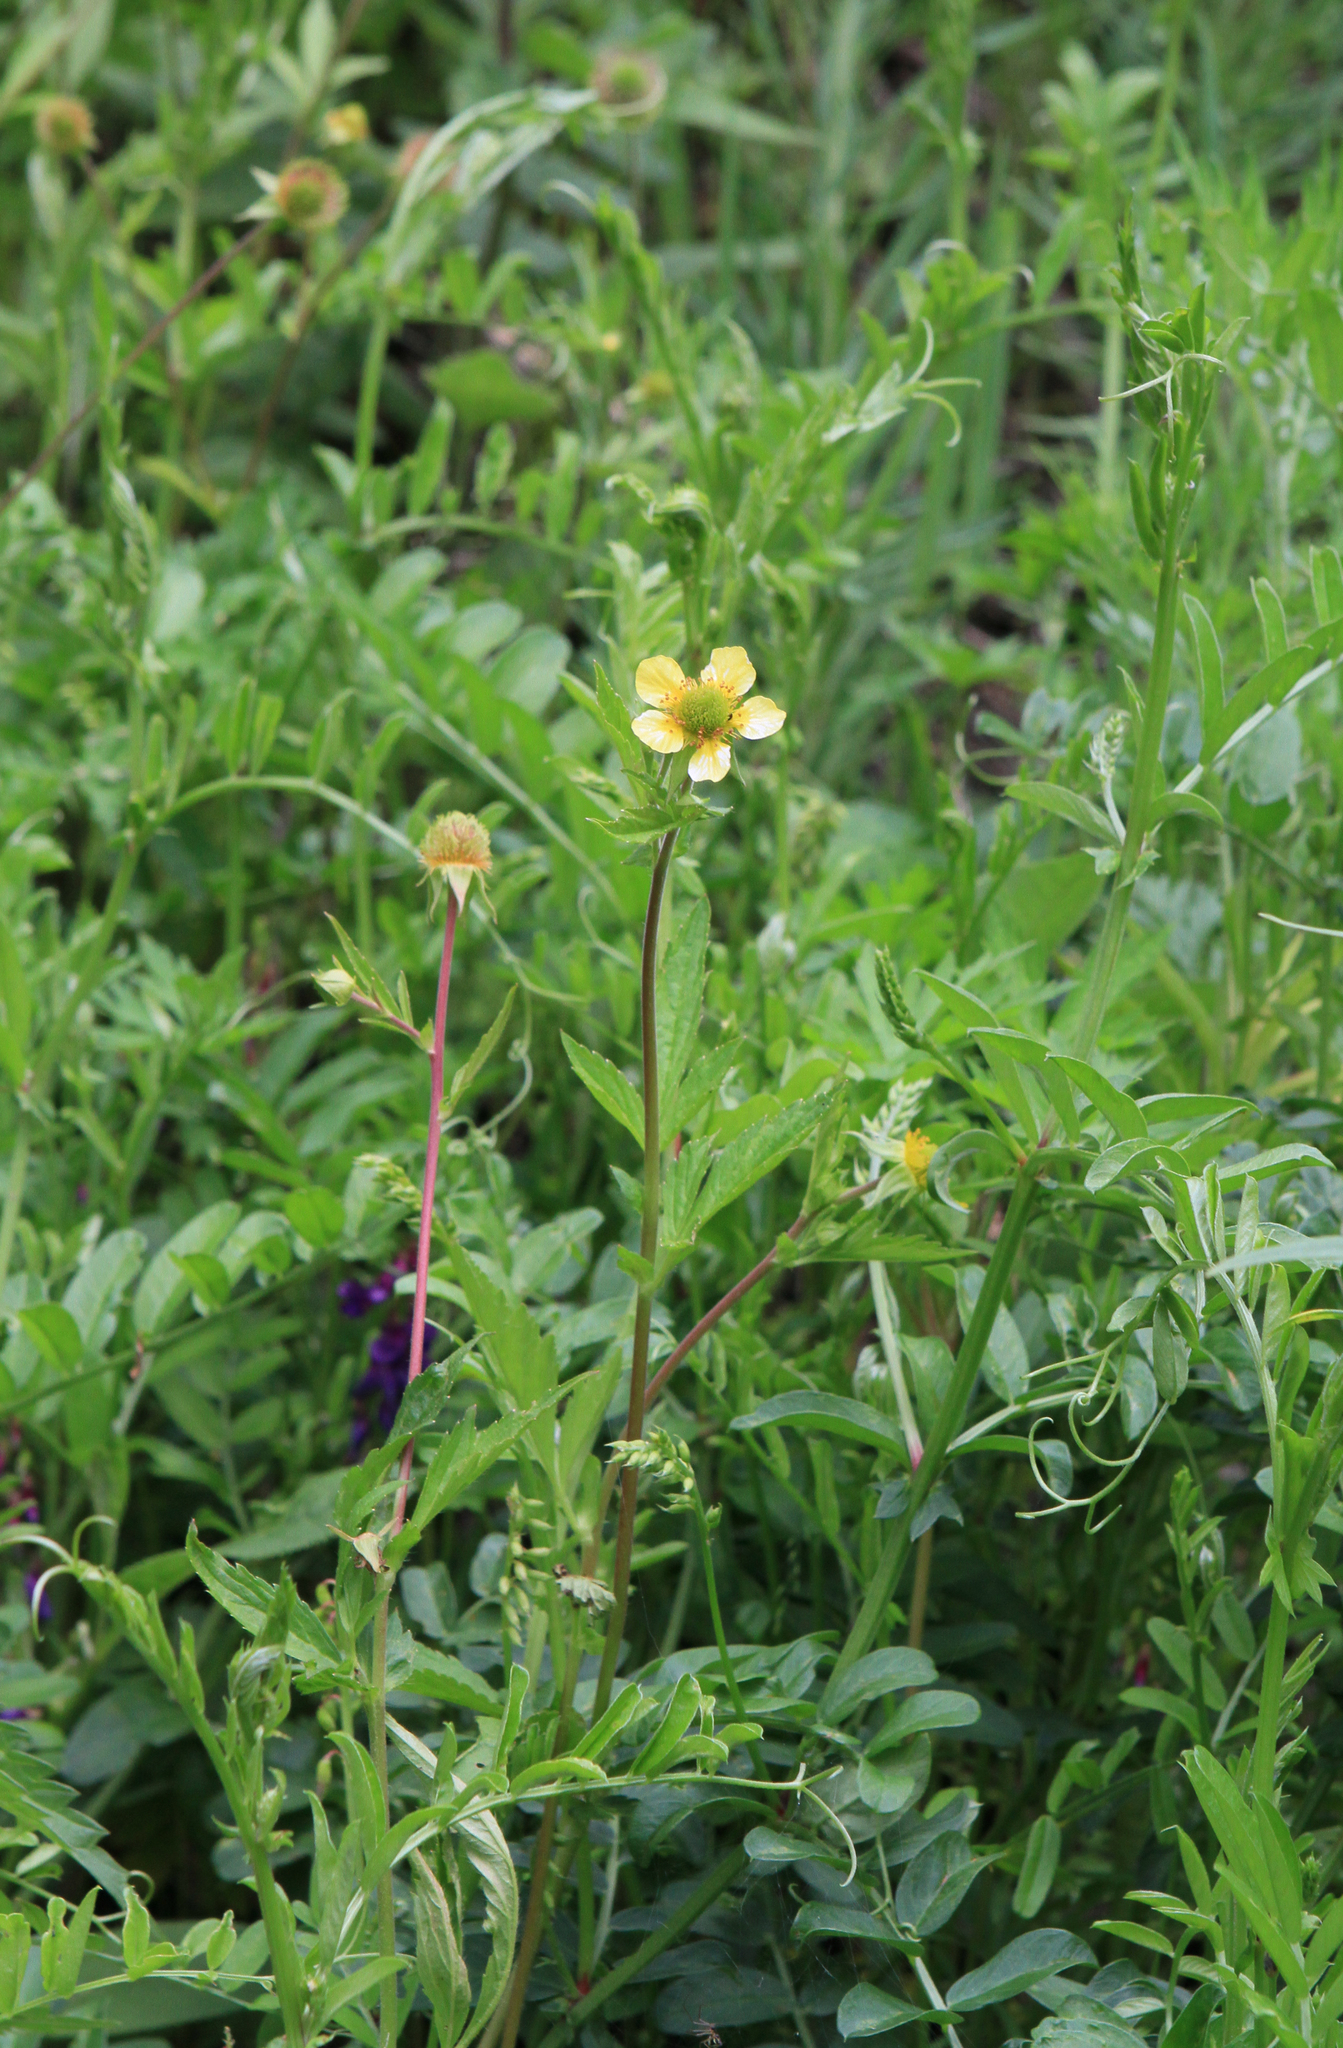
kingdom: Plantae
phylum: Tracheophyta
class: Magnoliopsida
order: Rosales
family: Rosaceae
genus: Geum
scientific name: Geum aleppicum
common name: Yellow avens
